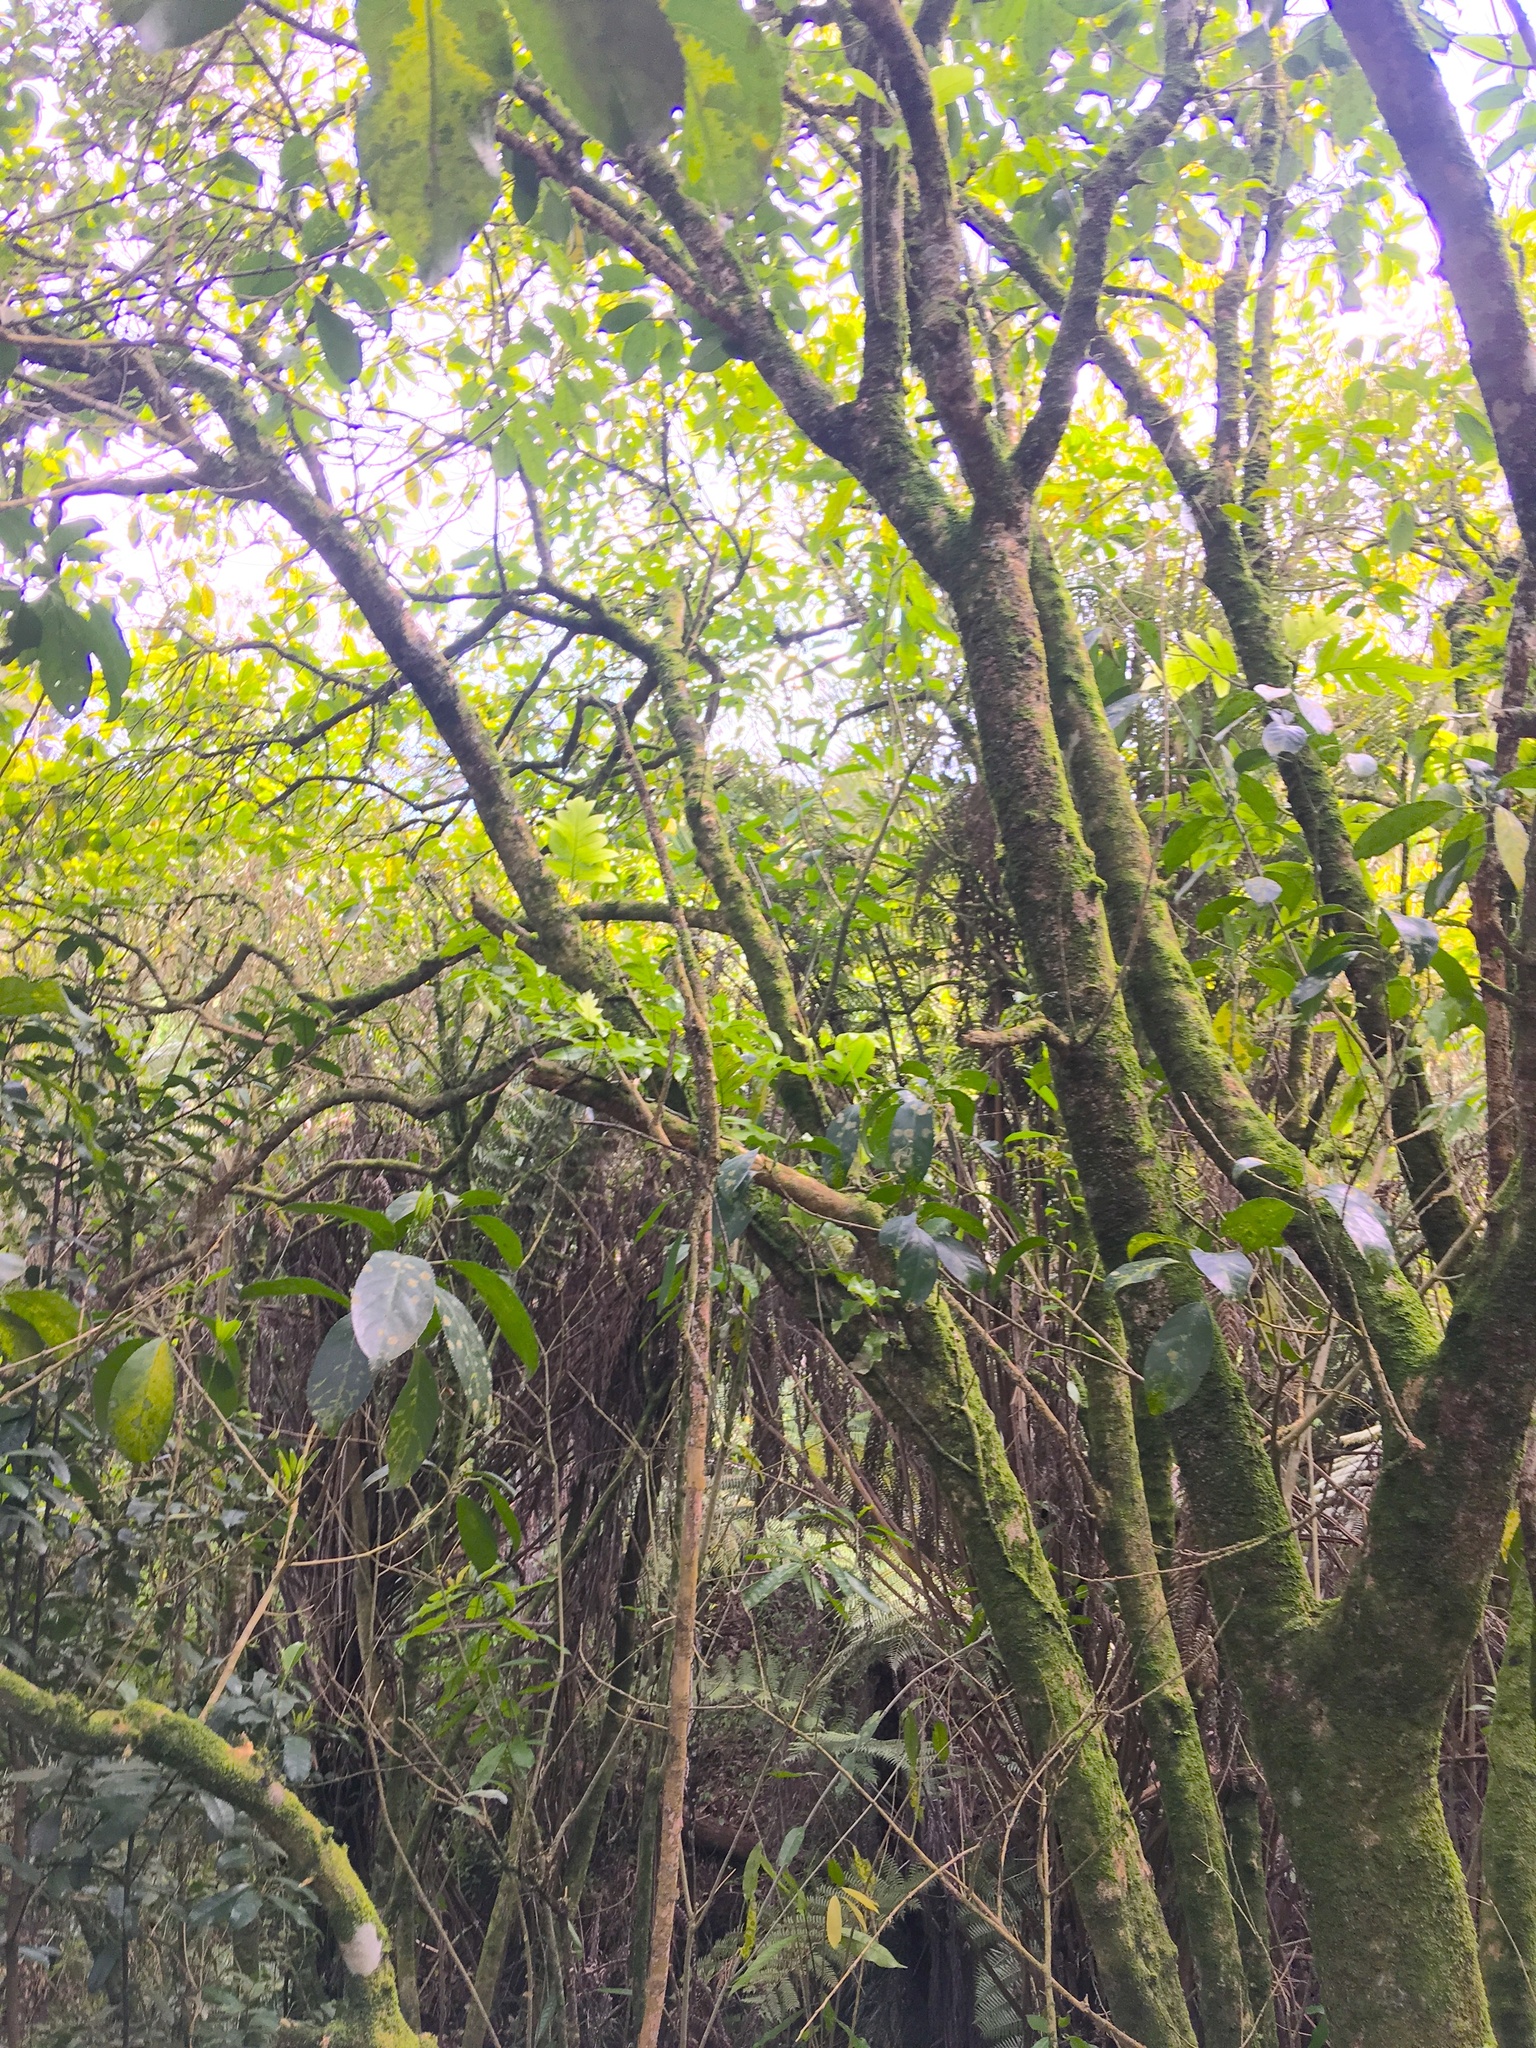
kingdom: Plantae
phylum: Tracheophyta
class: Magnoliopsida
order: Malpighiales
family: Violaceae
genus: Melicytus
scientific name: Melicytus ramiflorus
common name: Mahoe
